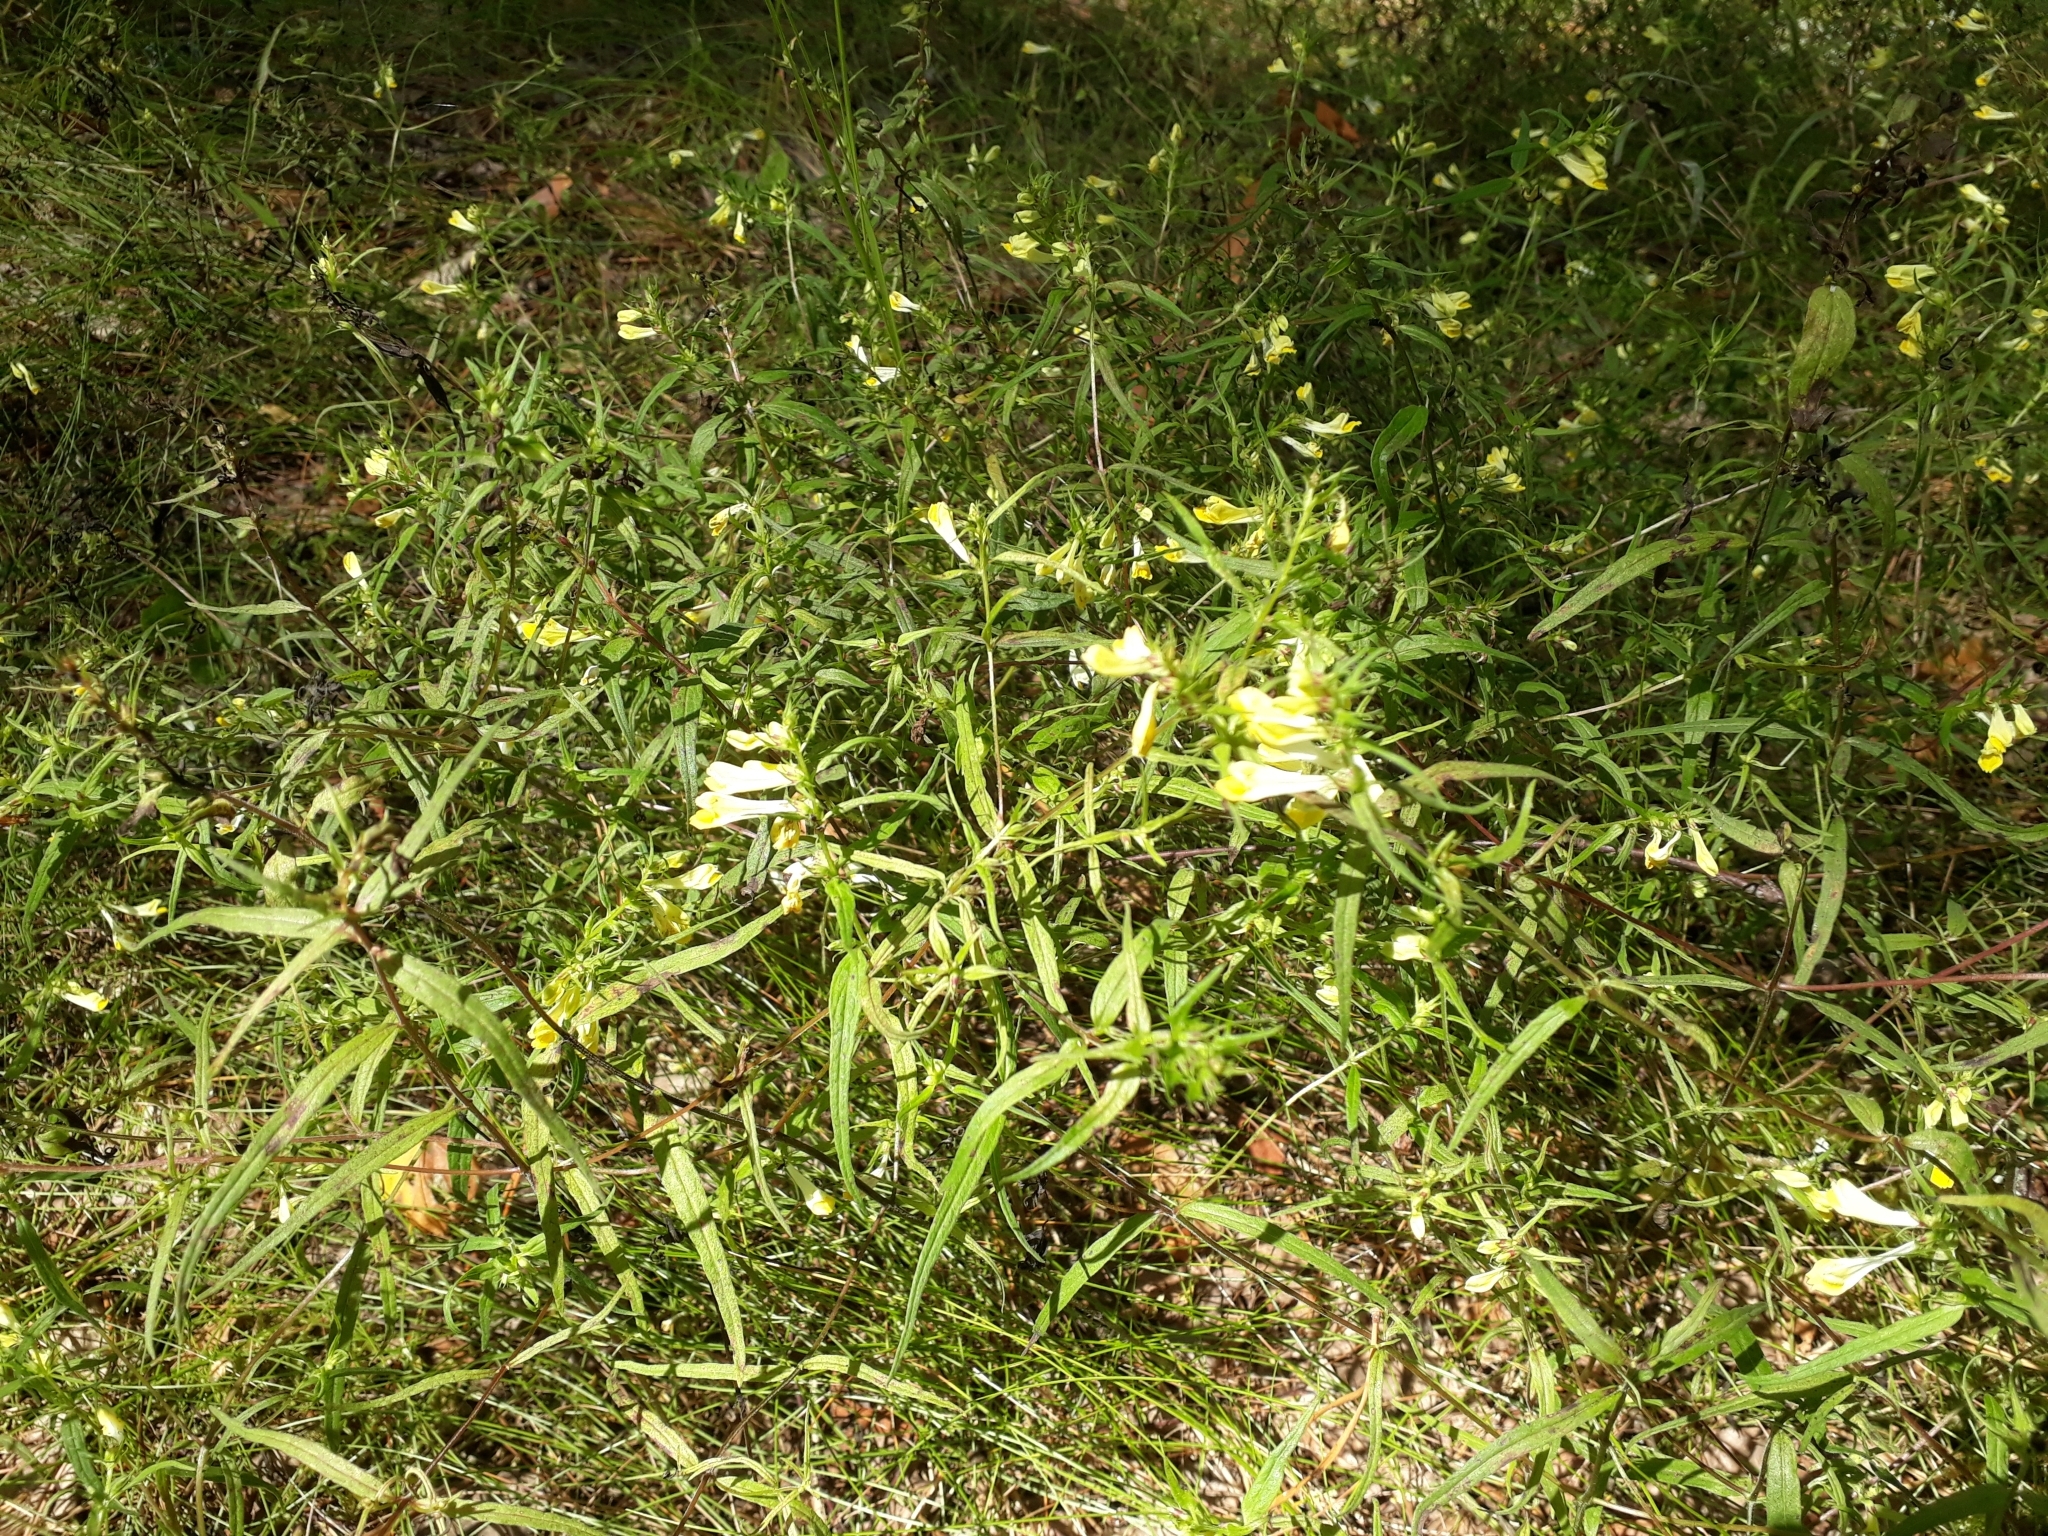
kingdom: Plantae
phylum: Tracheophyta
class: Magnoliopsida
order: Lamiales
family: Orobanchaceae
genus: Melampyrum
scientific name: Melampyrum pratense
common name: Common cow-wheat
